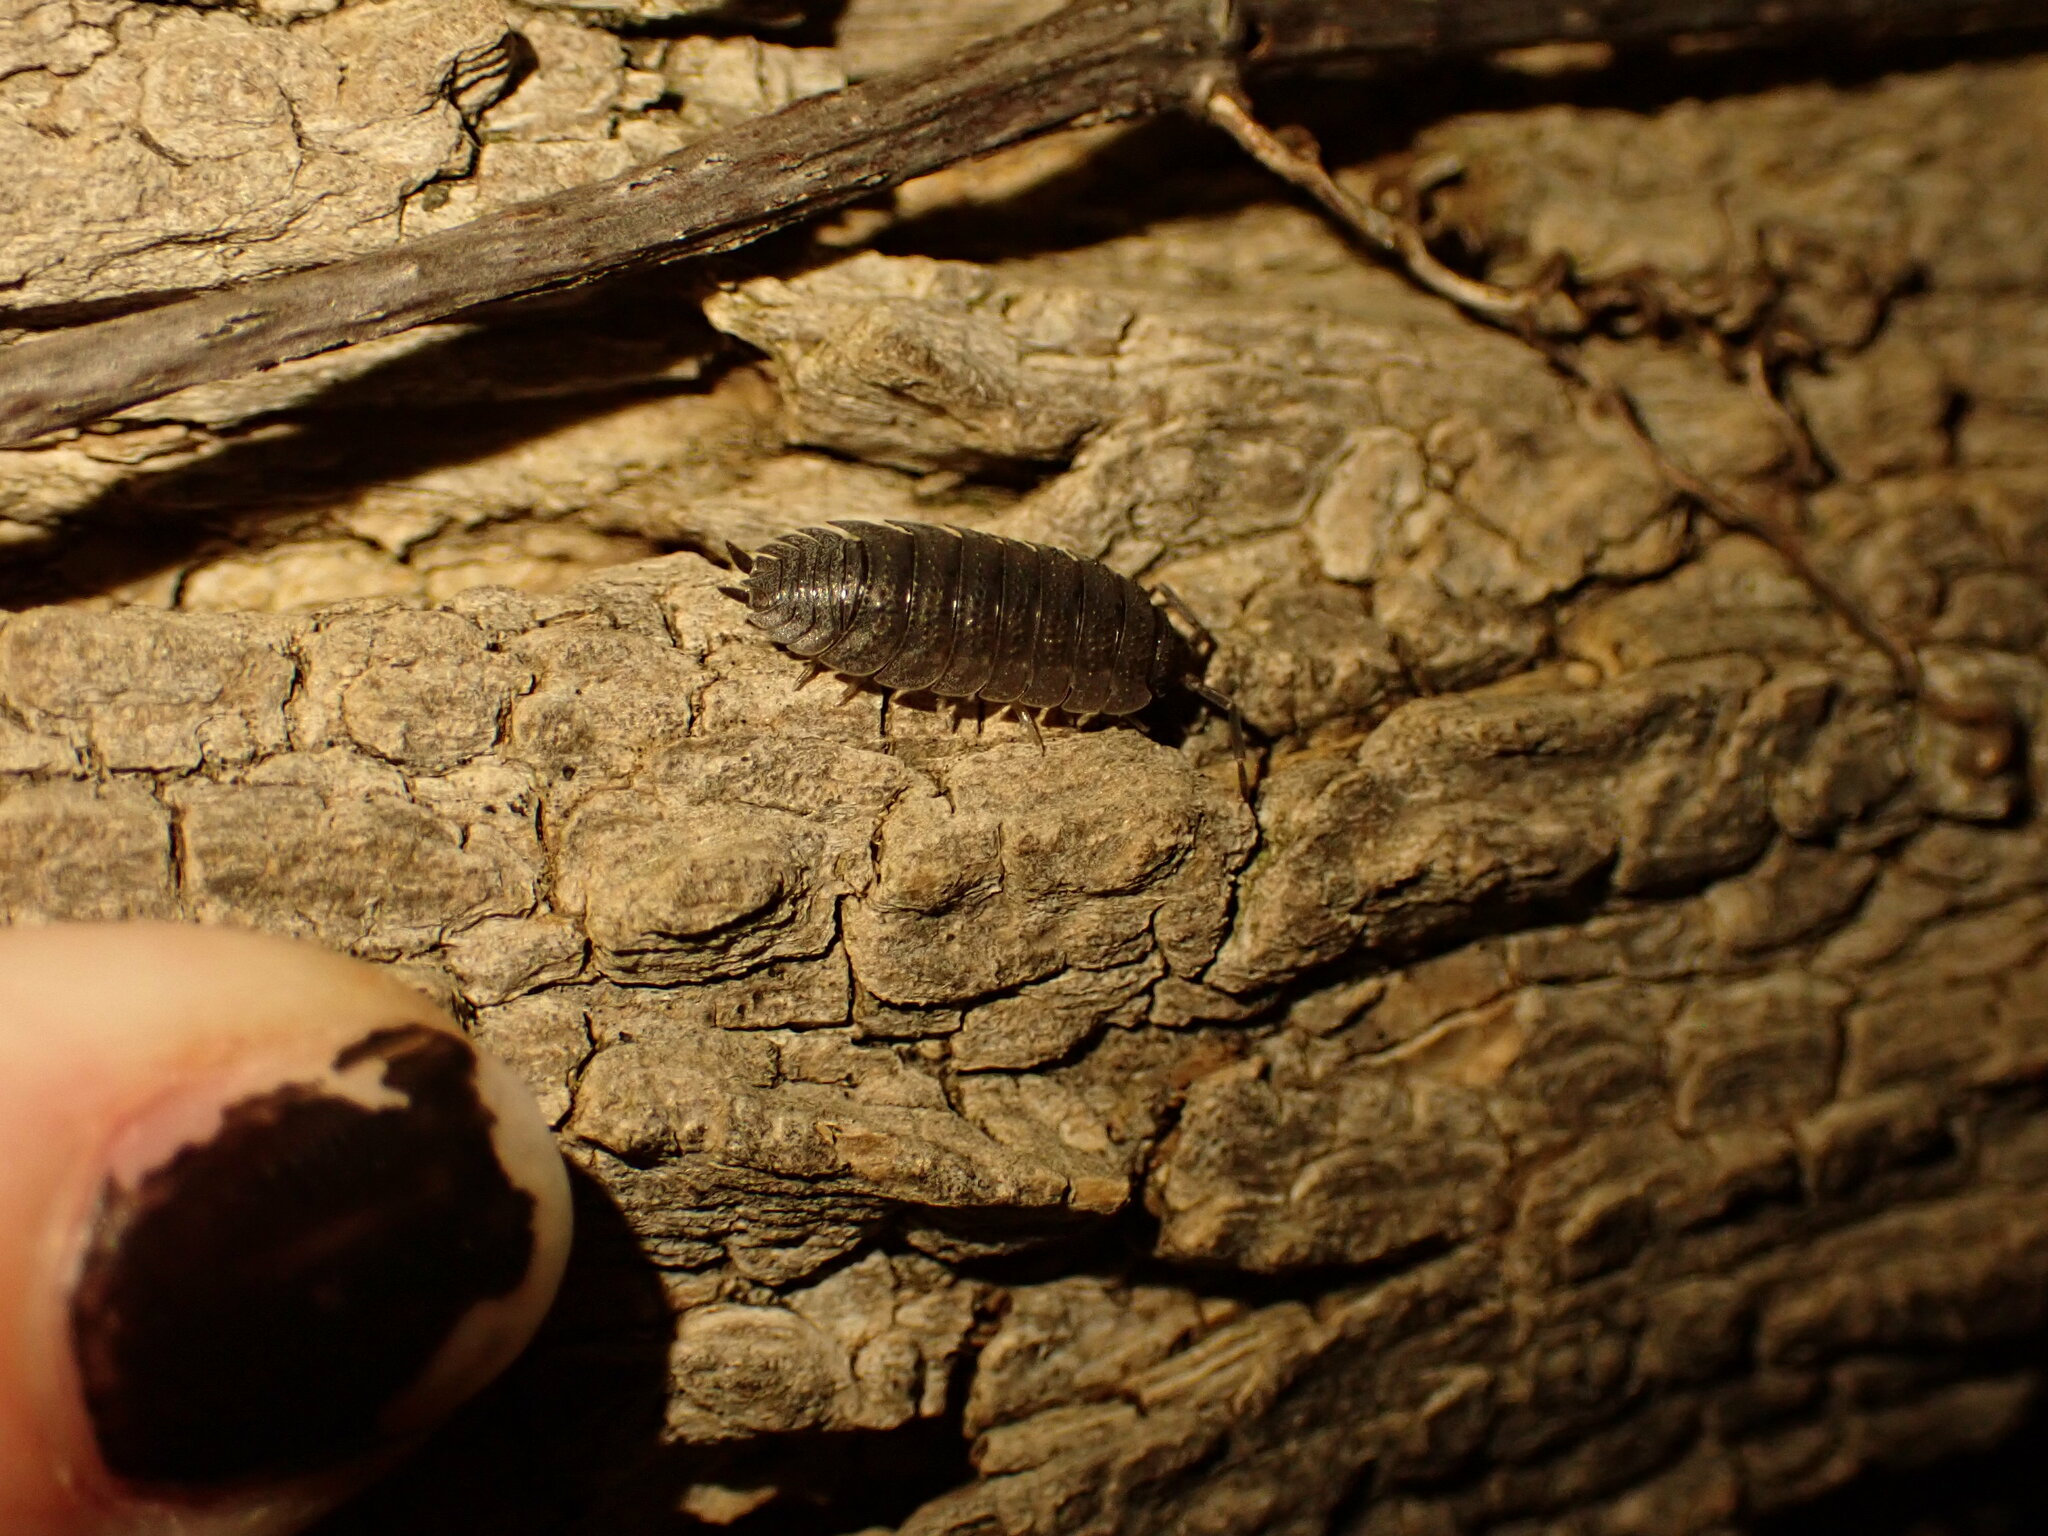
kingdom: Animalia
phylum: Arthropoda
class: Malacostraca
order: Isopoda
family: Porcellionidae
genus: Porcellio
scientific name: Porcellio scaber
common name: Common rough woodlouse
